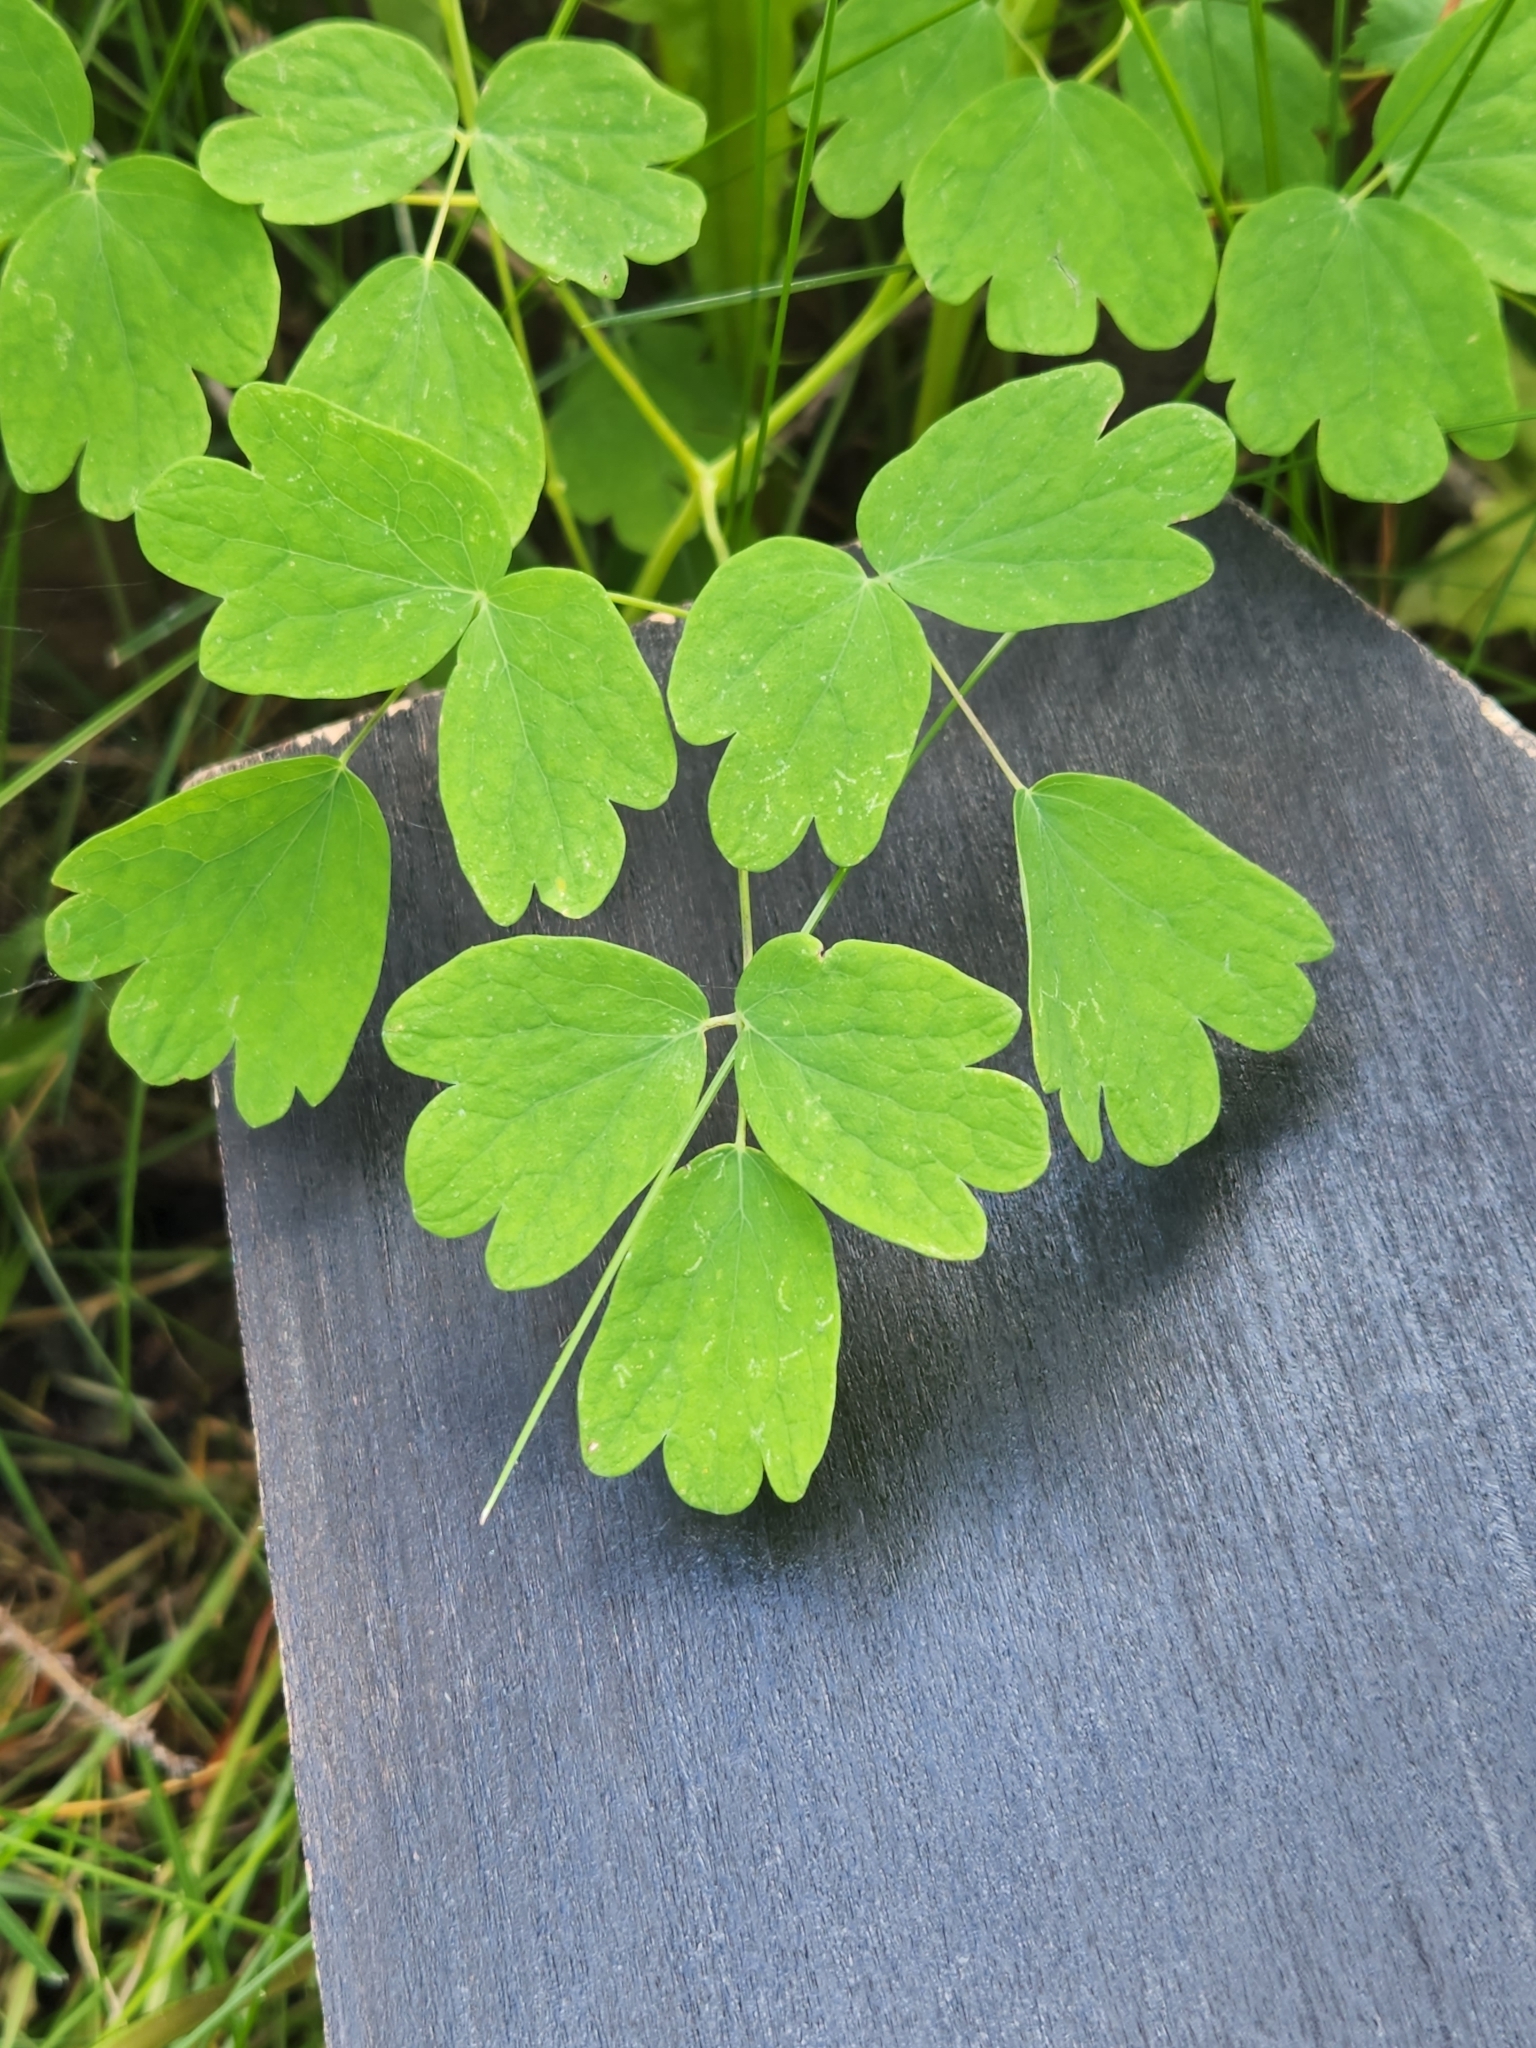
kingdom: Plantae
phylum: Tracheophyta
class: Magnoliopsida
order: Ranunculales
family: Ranunculaceae
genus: Thalictrum
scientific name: Thalictrum occidentale
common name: Western meadow-rue
